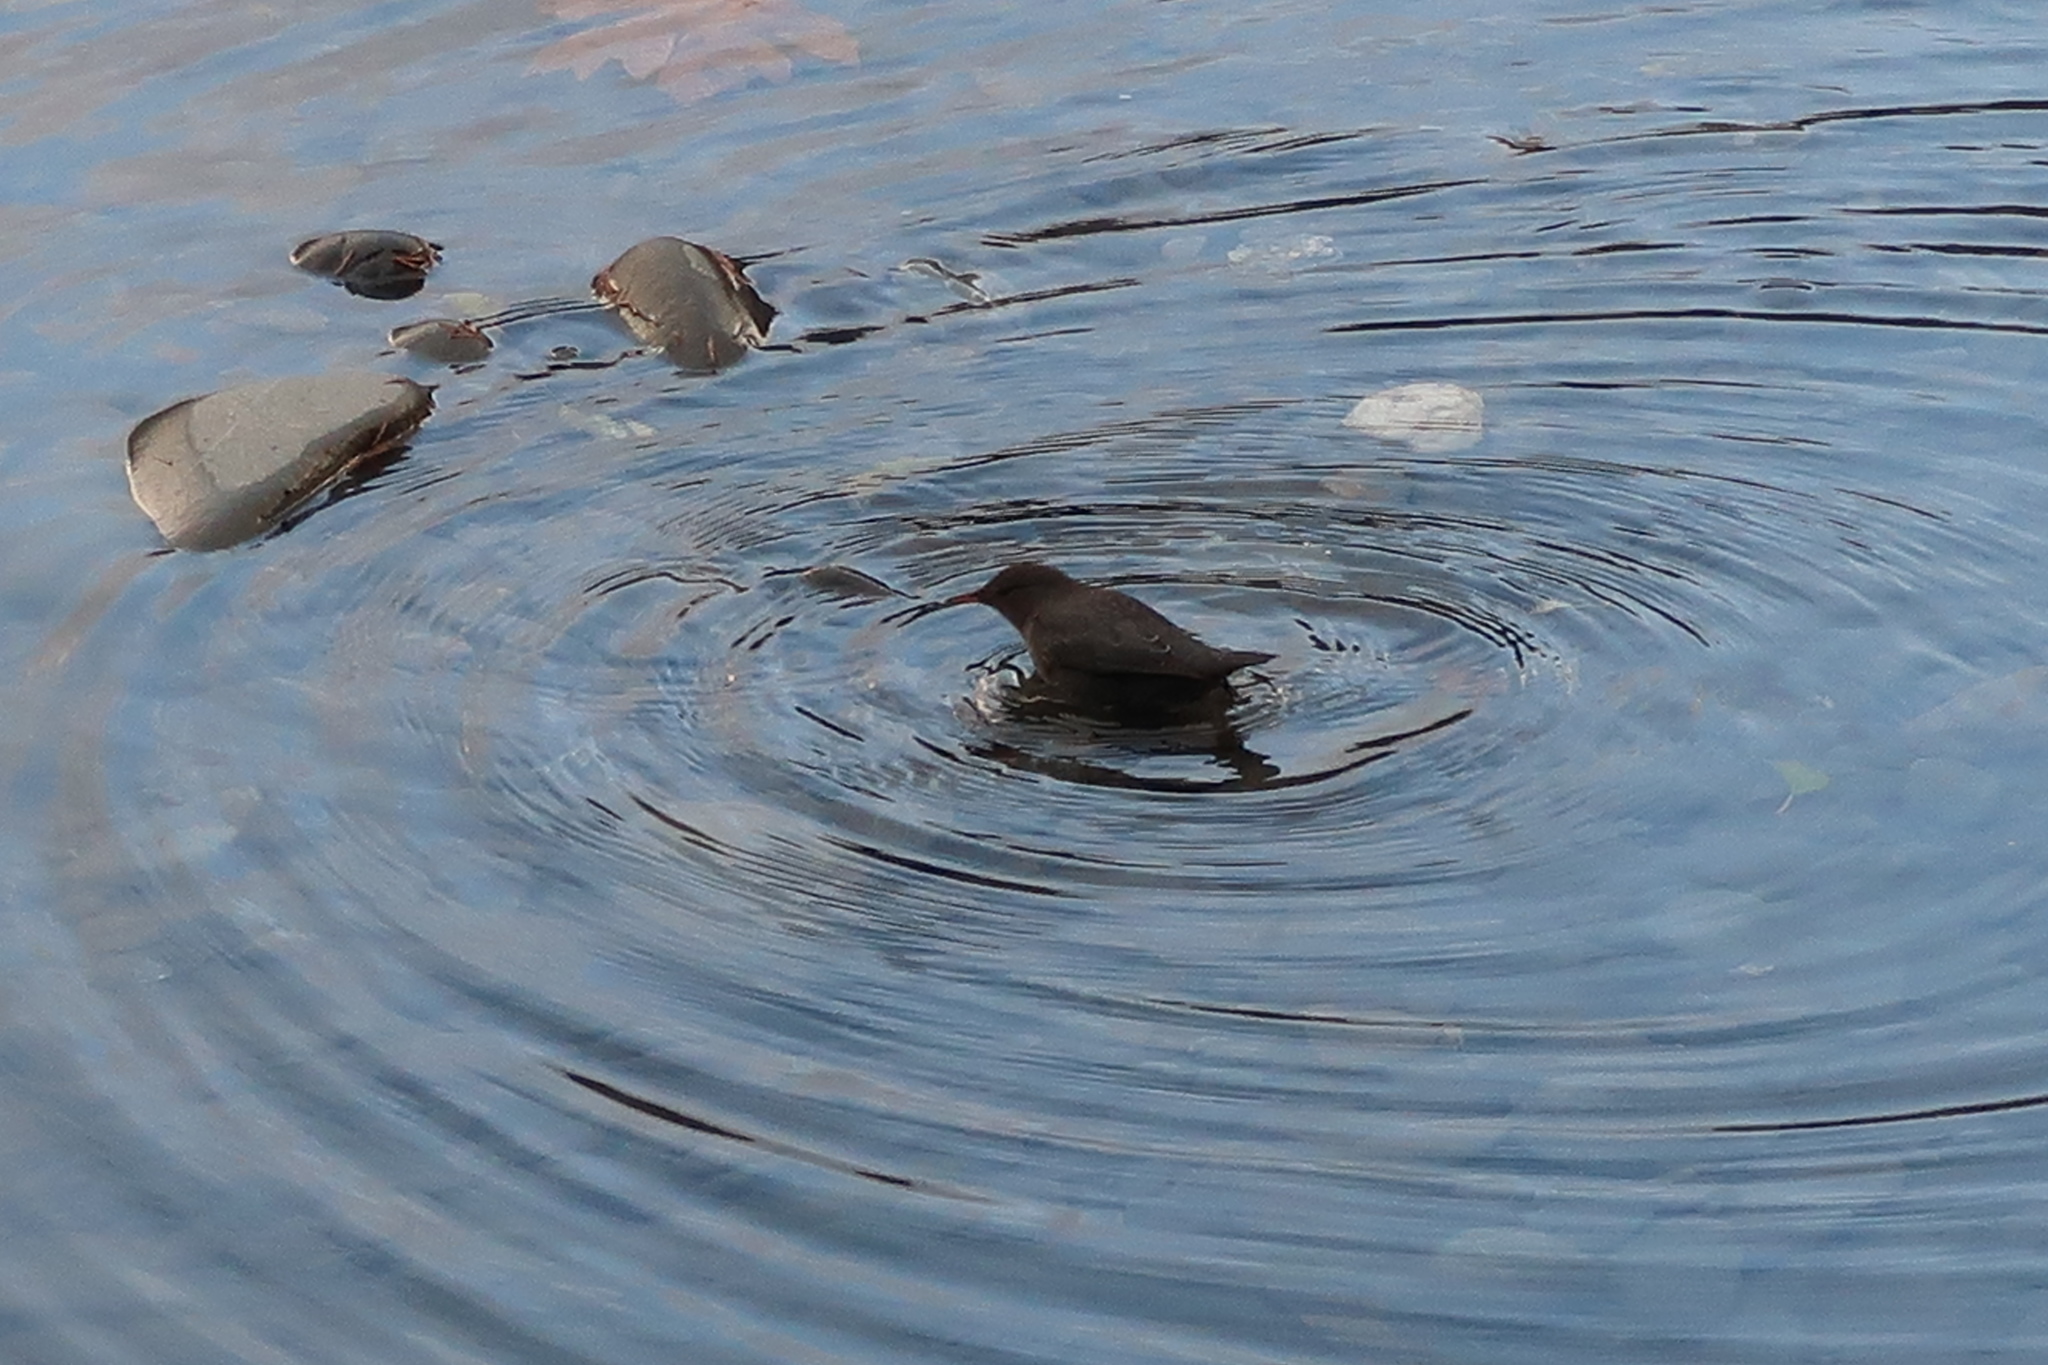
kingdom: Animalia
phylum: Chordata
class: Aves
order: Passeriformes
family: Cinclidae
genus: Cinclus
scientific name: Cinclus mexicanus
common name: American dipper
